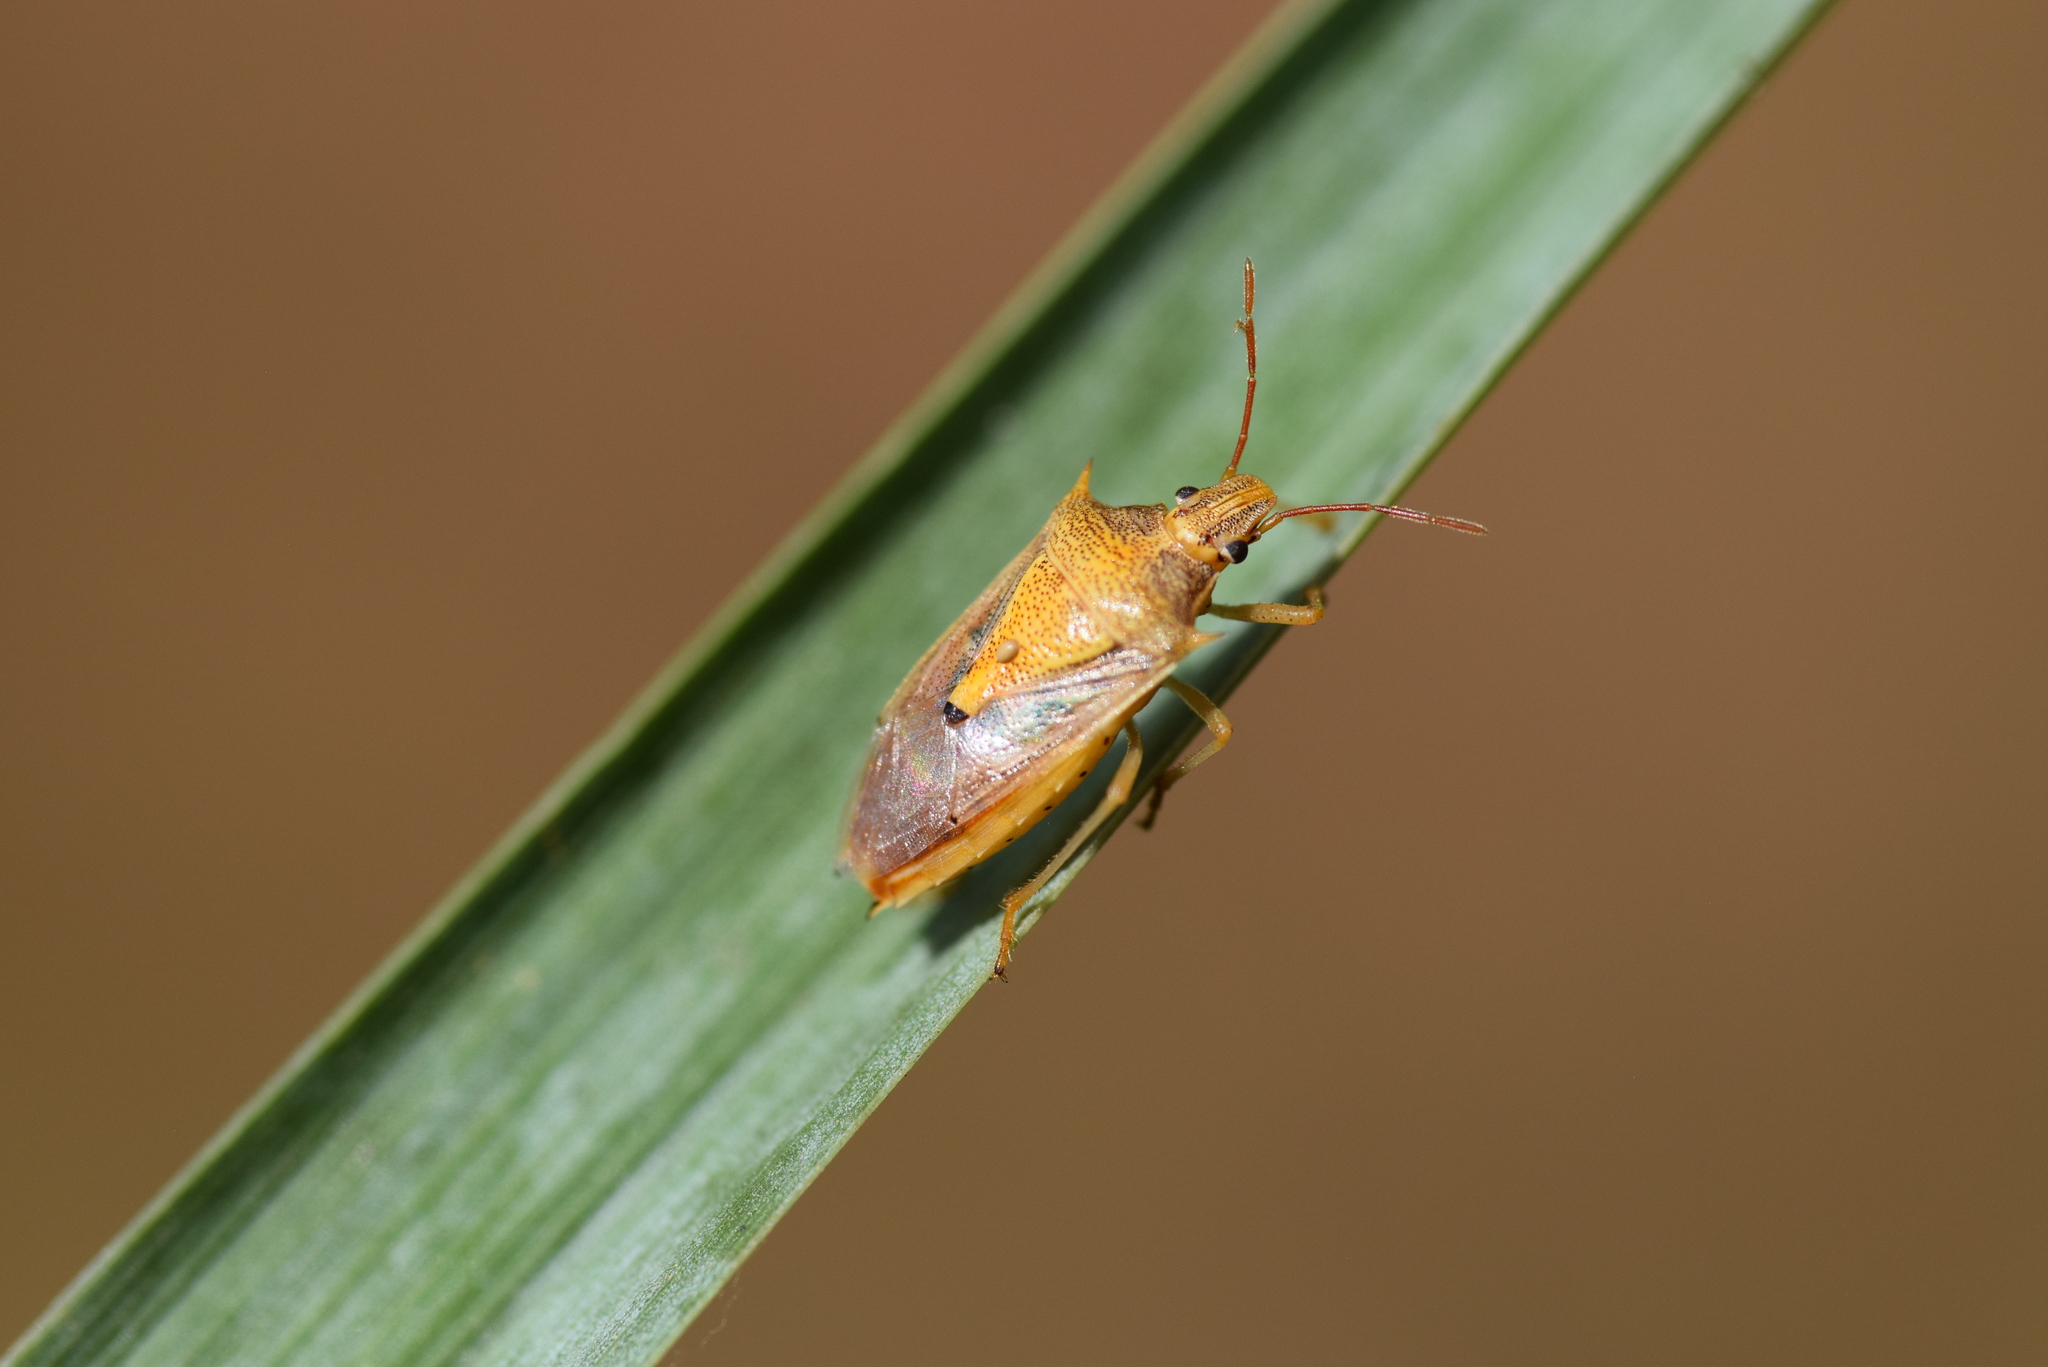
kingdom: Animalia
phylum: Arthropoda
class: Insecta
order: Hemiptera
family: Pentatomidae
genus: Oebalus
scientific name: Oebalus pugnax
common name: Rice stink bug
